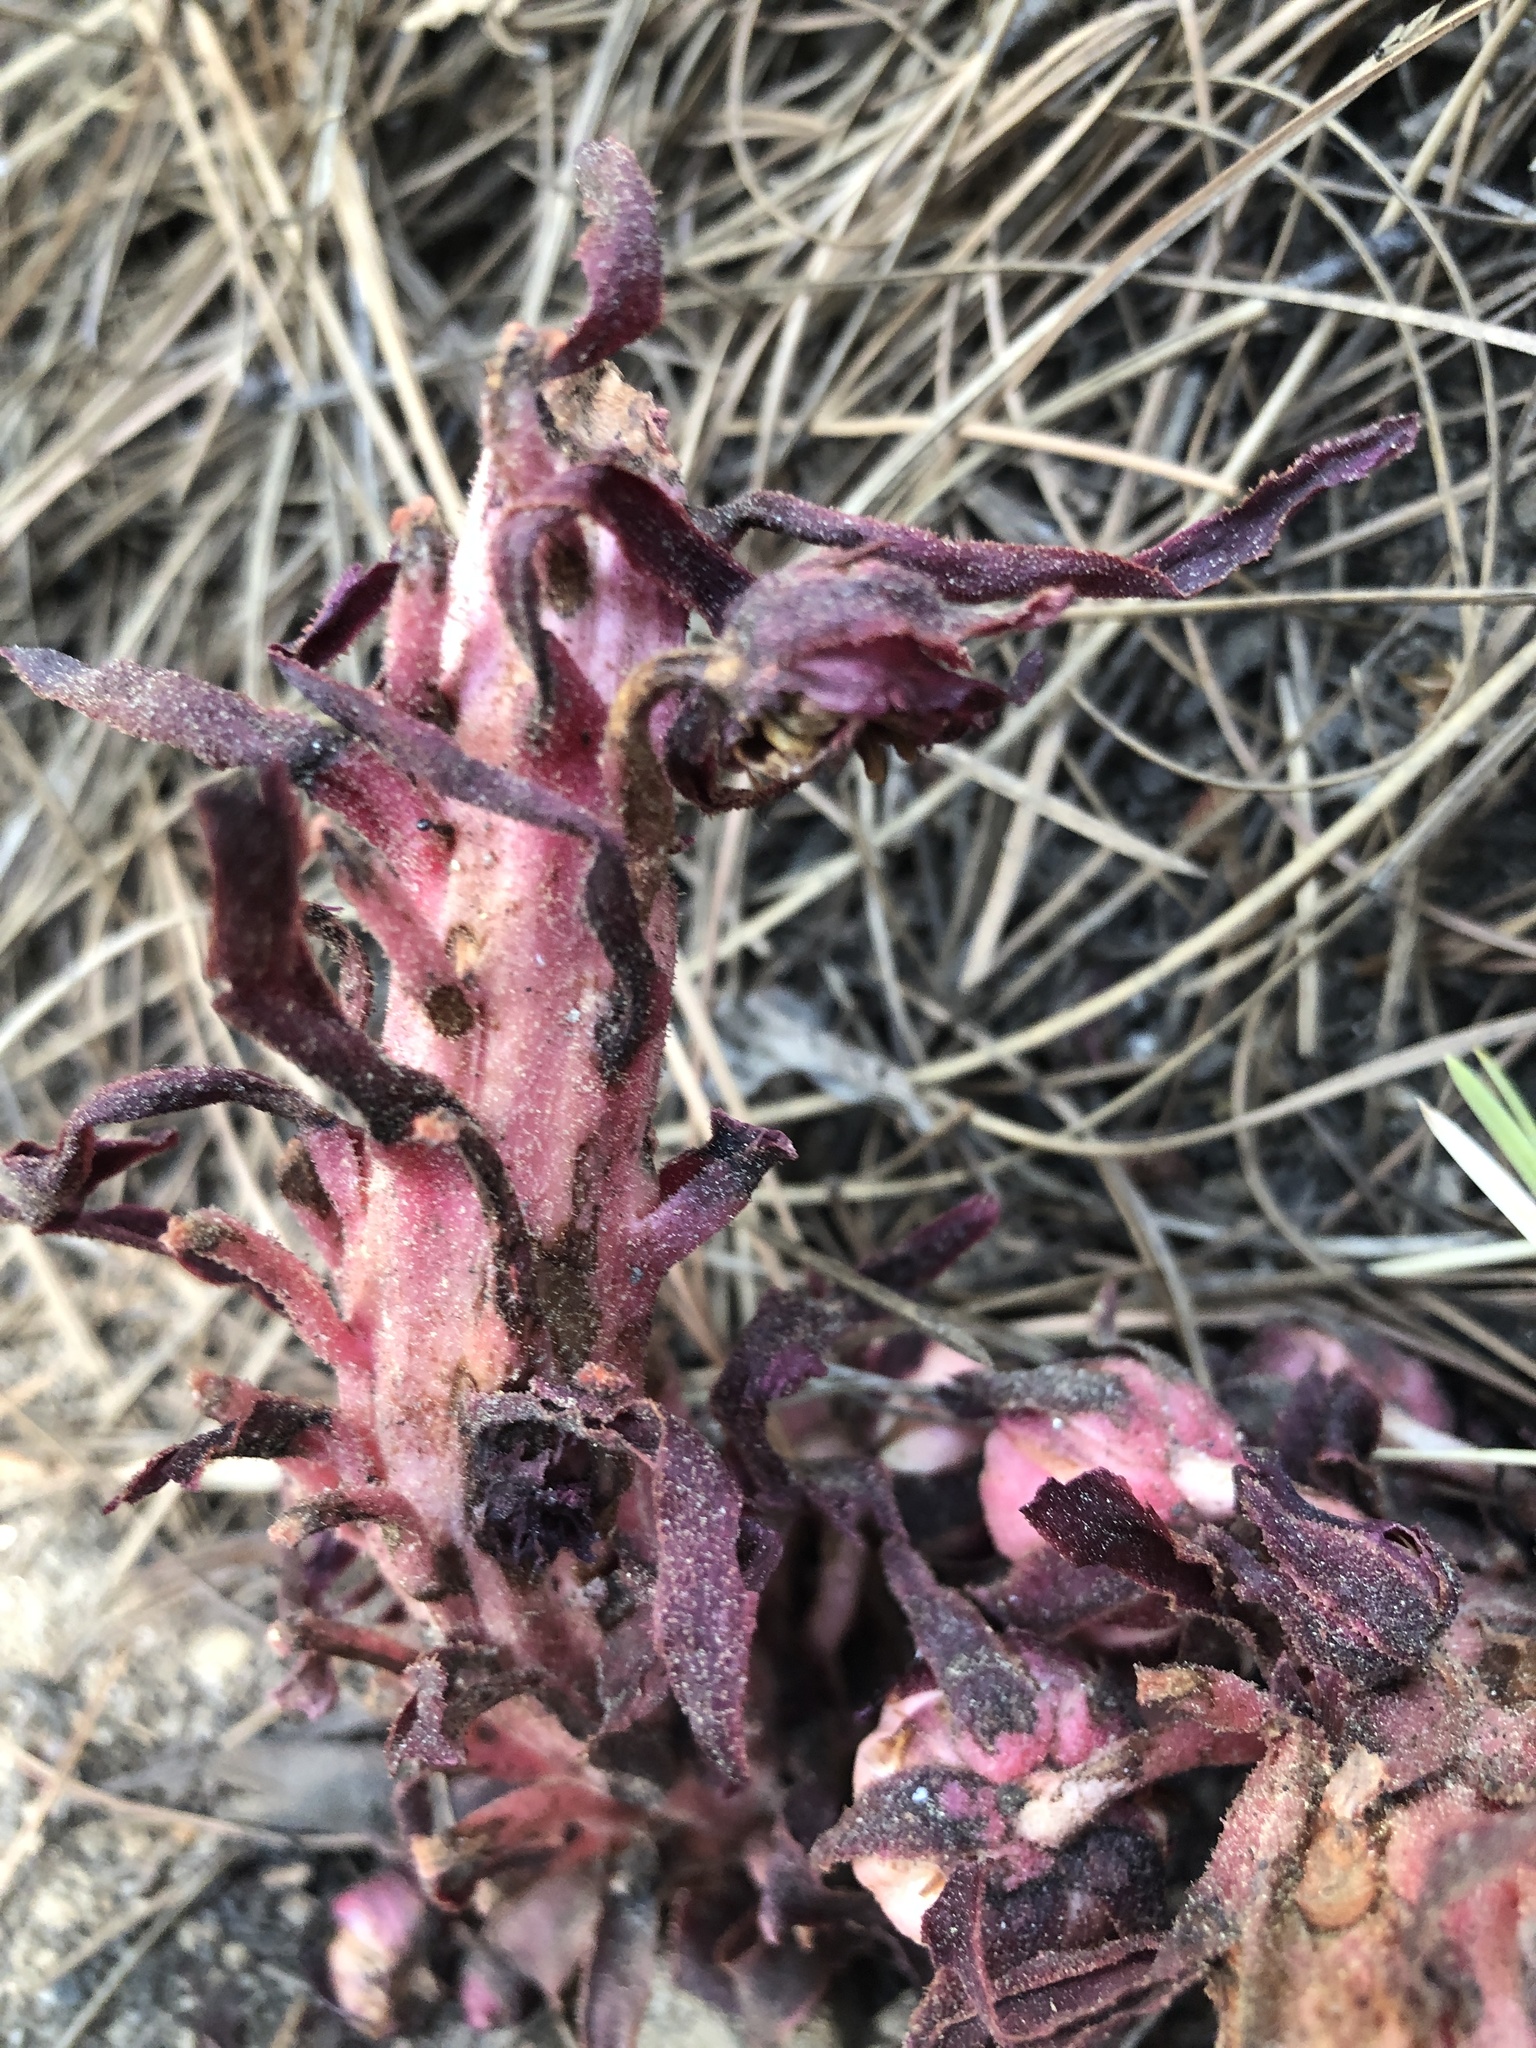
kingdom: Plantae
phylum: Tracheophyta
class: Magnoliopsida
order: Ericales
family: Ericaceae
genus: Sarcodes
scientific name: Sarcodes sanguinea
